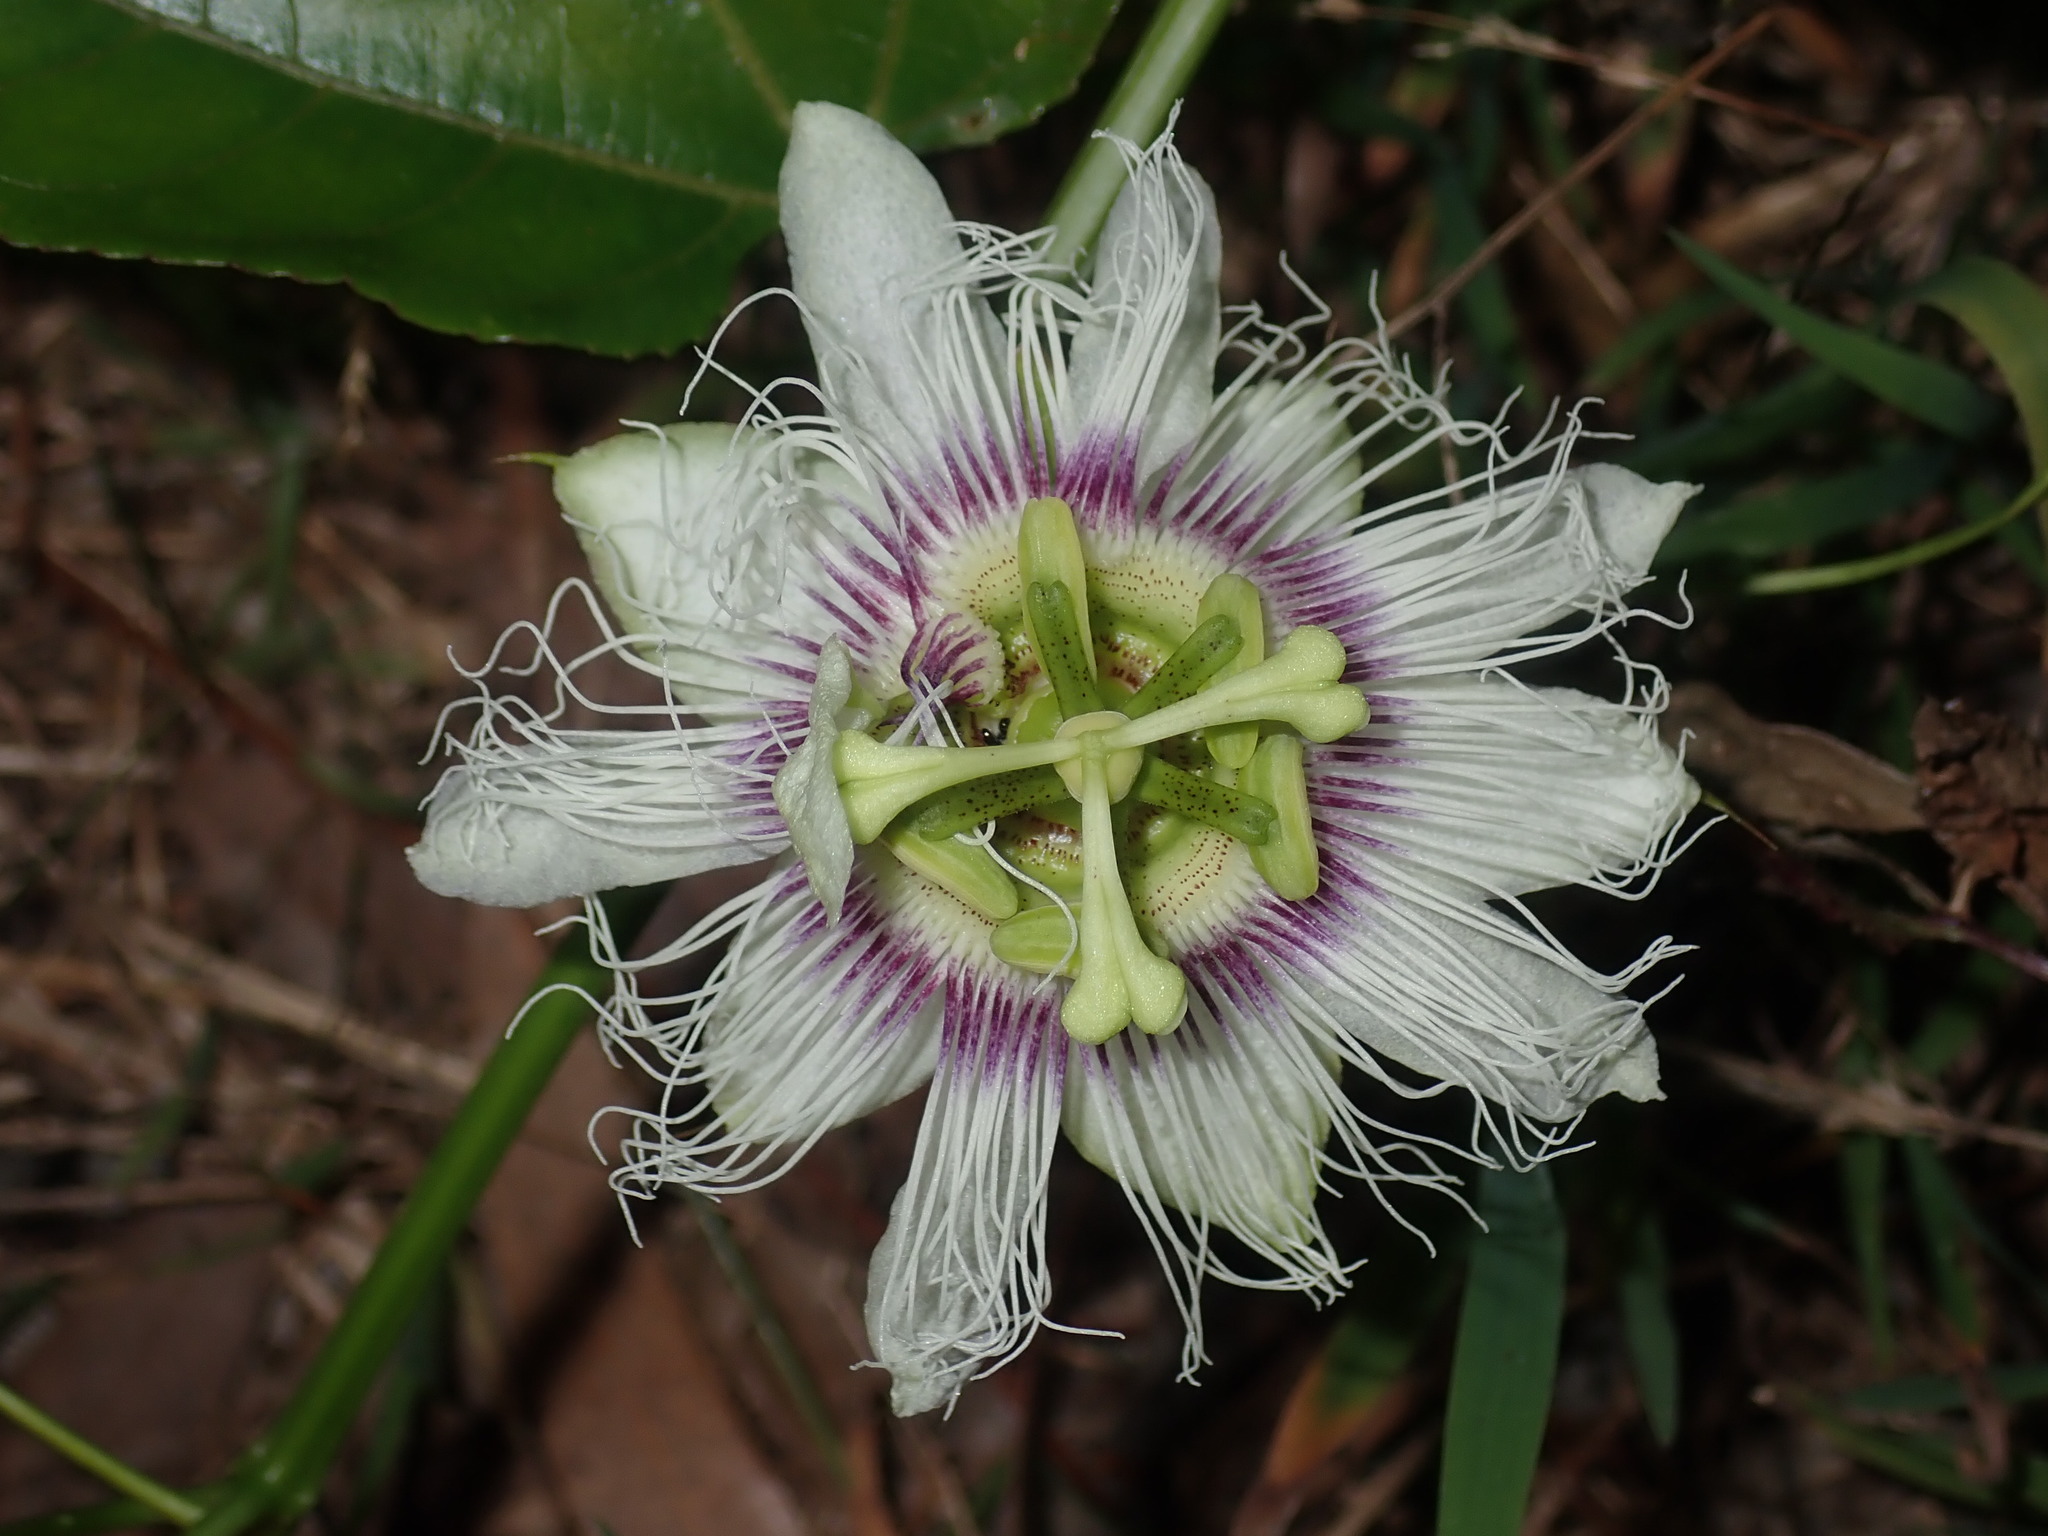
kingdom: Plantae
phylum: Tracheophyta
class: Magnoliopsida
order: Malpighiales
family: Passifloraceae
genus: Passiflora
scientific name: Passiflora edulis
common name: Purple granadilla
